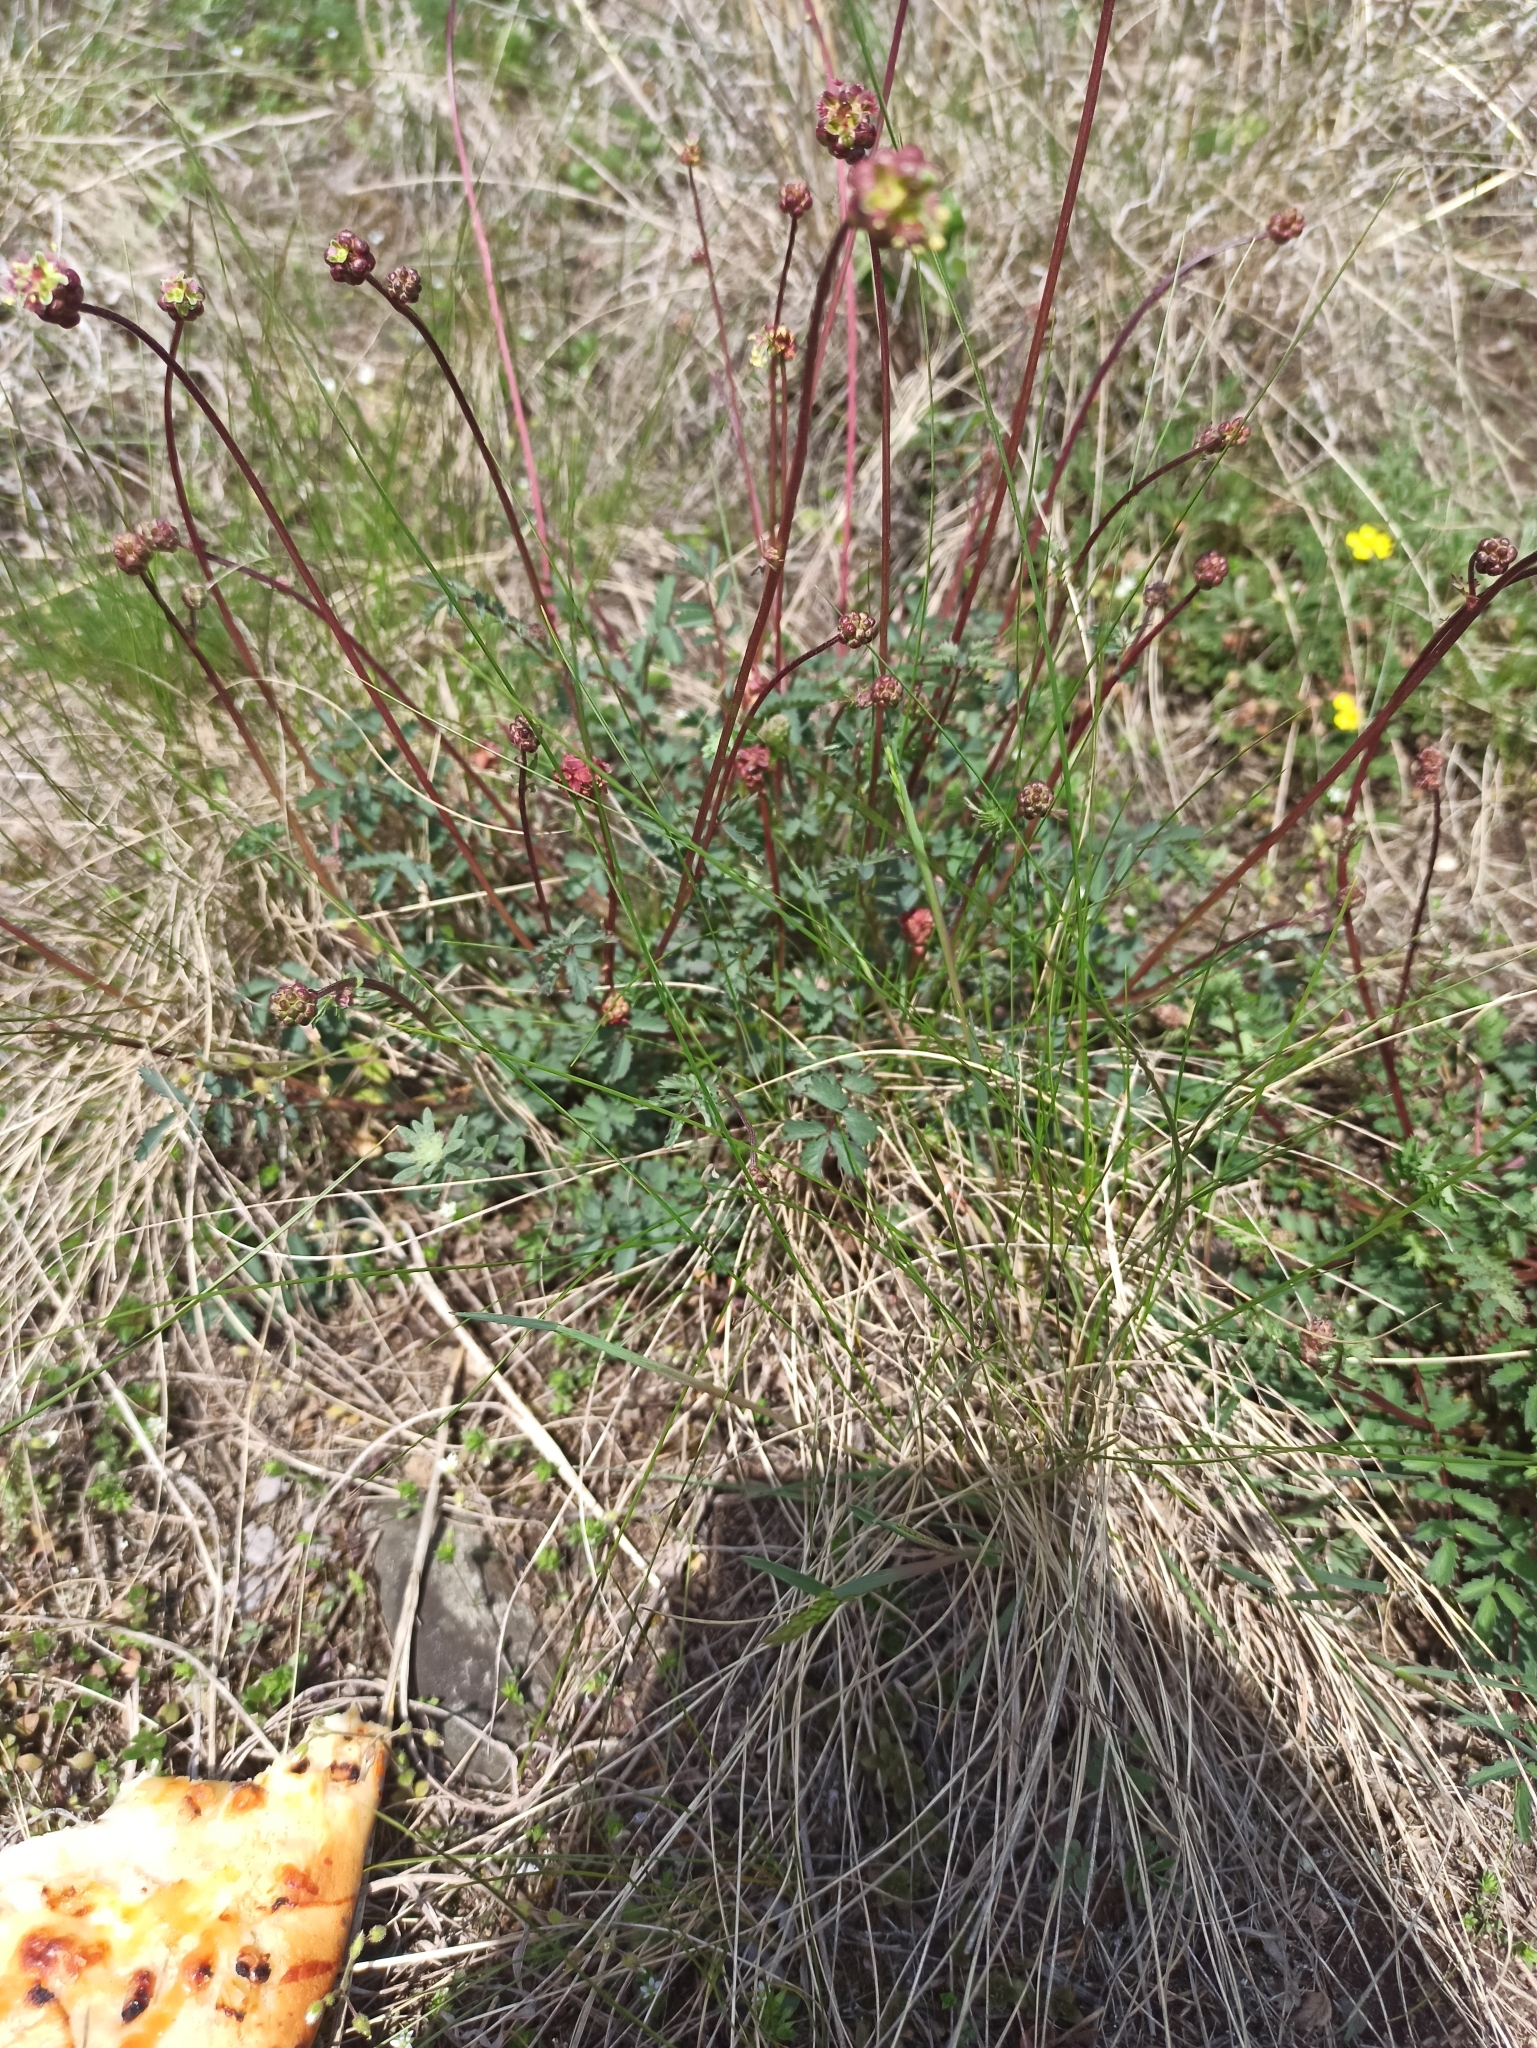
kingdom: Plantae
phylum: Tracheophyta
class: Magnoliopsida
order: Rosales
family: Rosaceae
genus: Poterium
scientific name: Poterium sanguisorba
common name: Salad burnet
